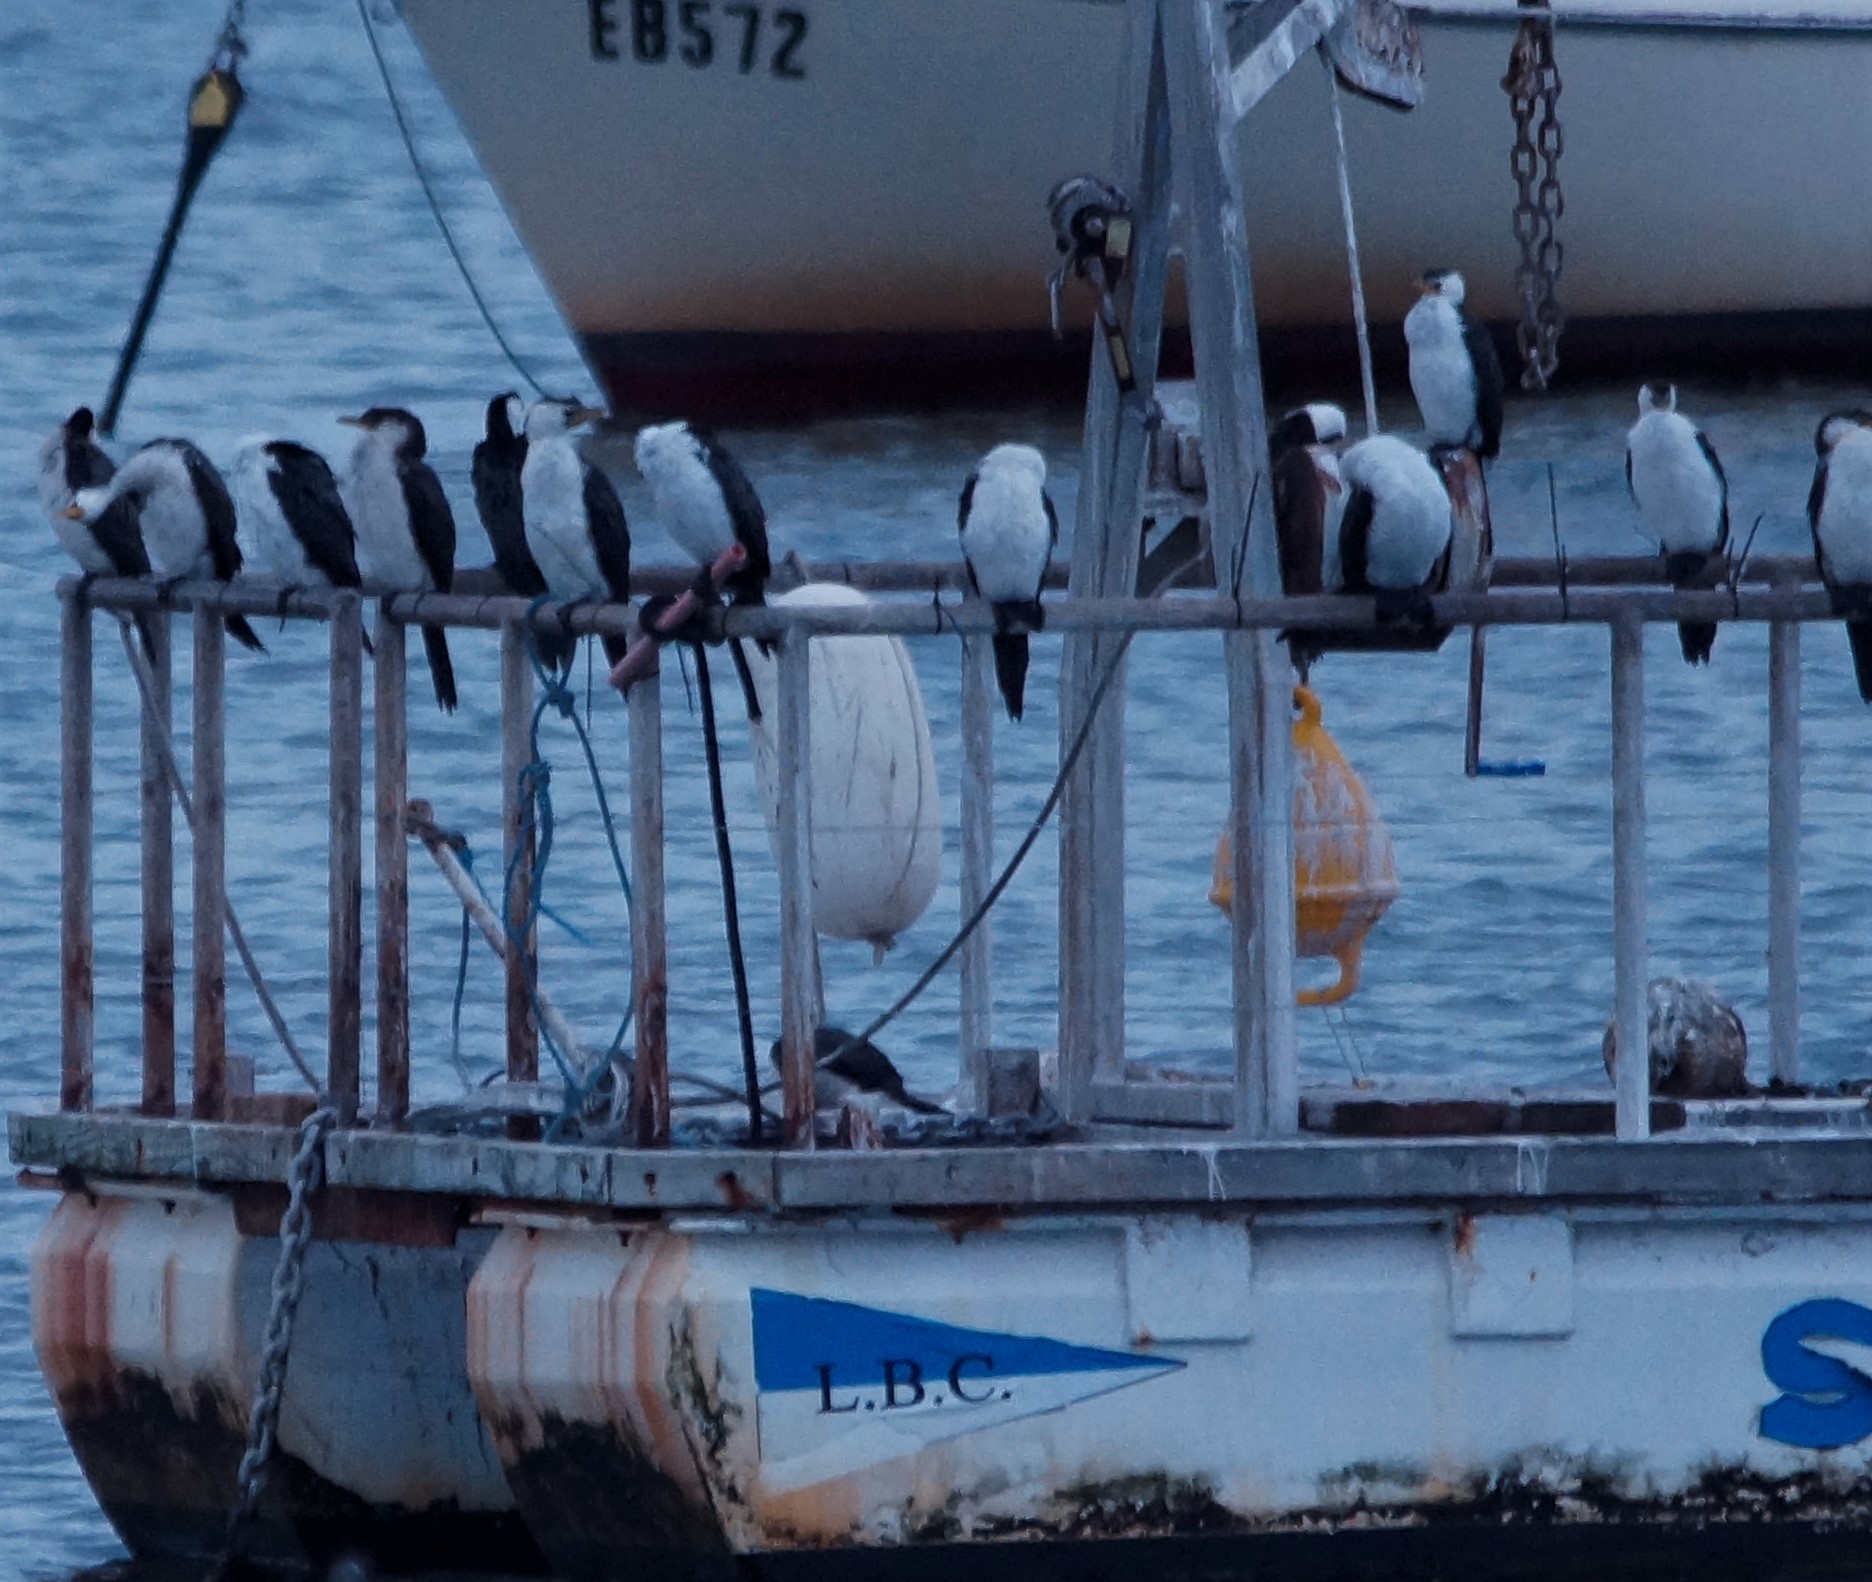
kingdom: Animalia
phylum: Chordata
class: Aves
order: Suliformes
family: Phalacrocoracidae
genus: Microcarbo
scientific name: Microcarbo melanoleucos
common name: Little pied cormorant
